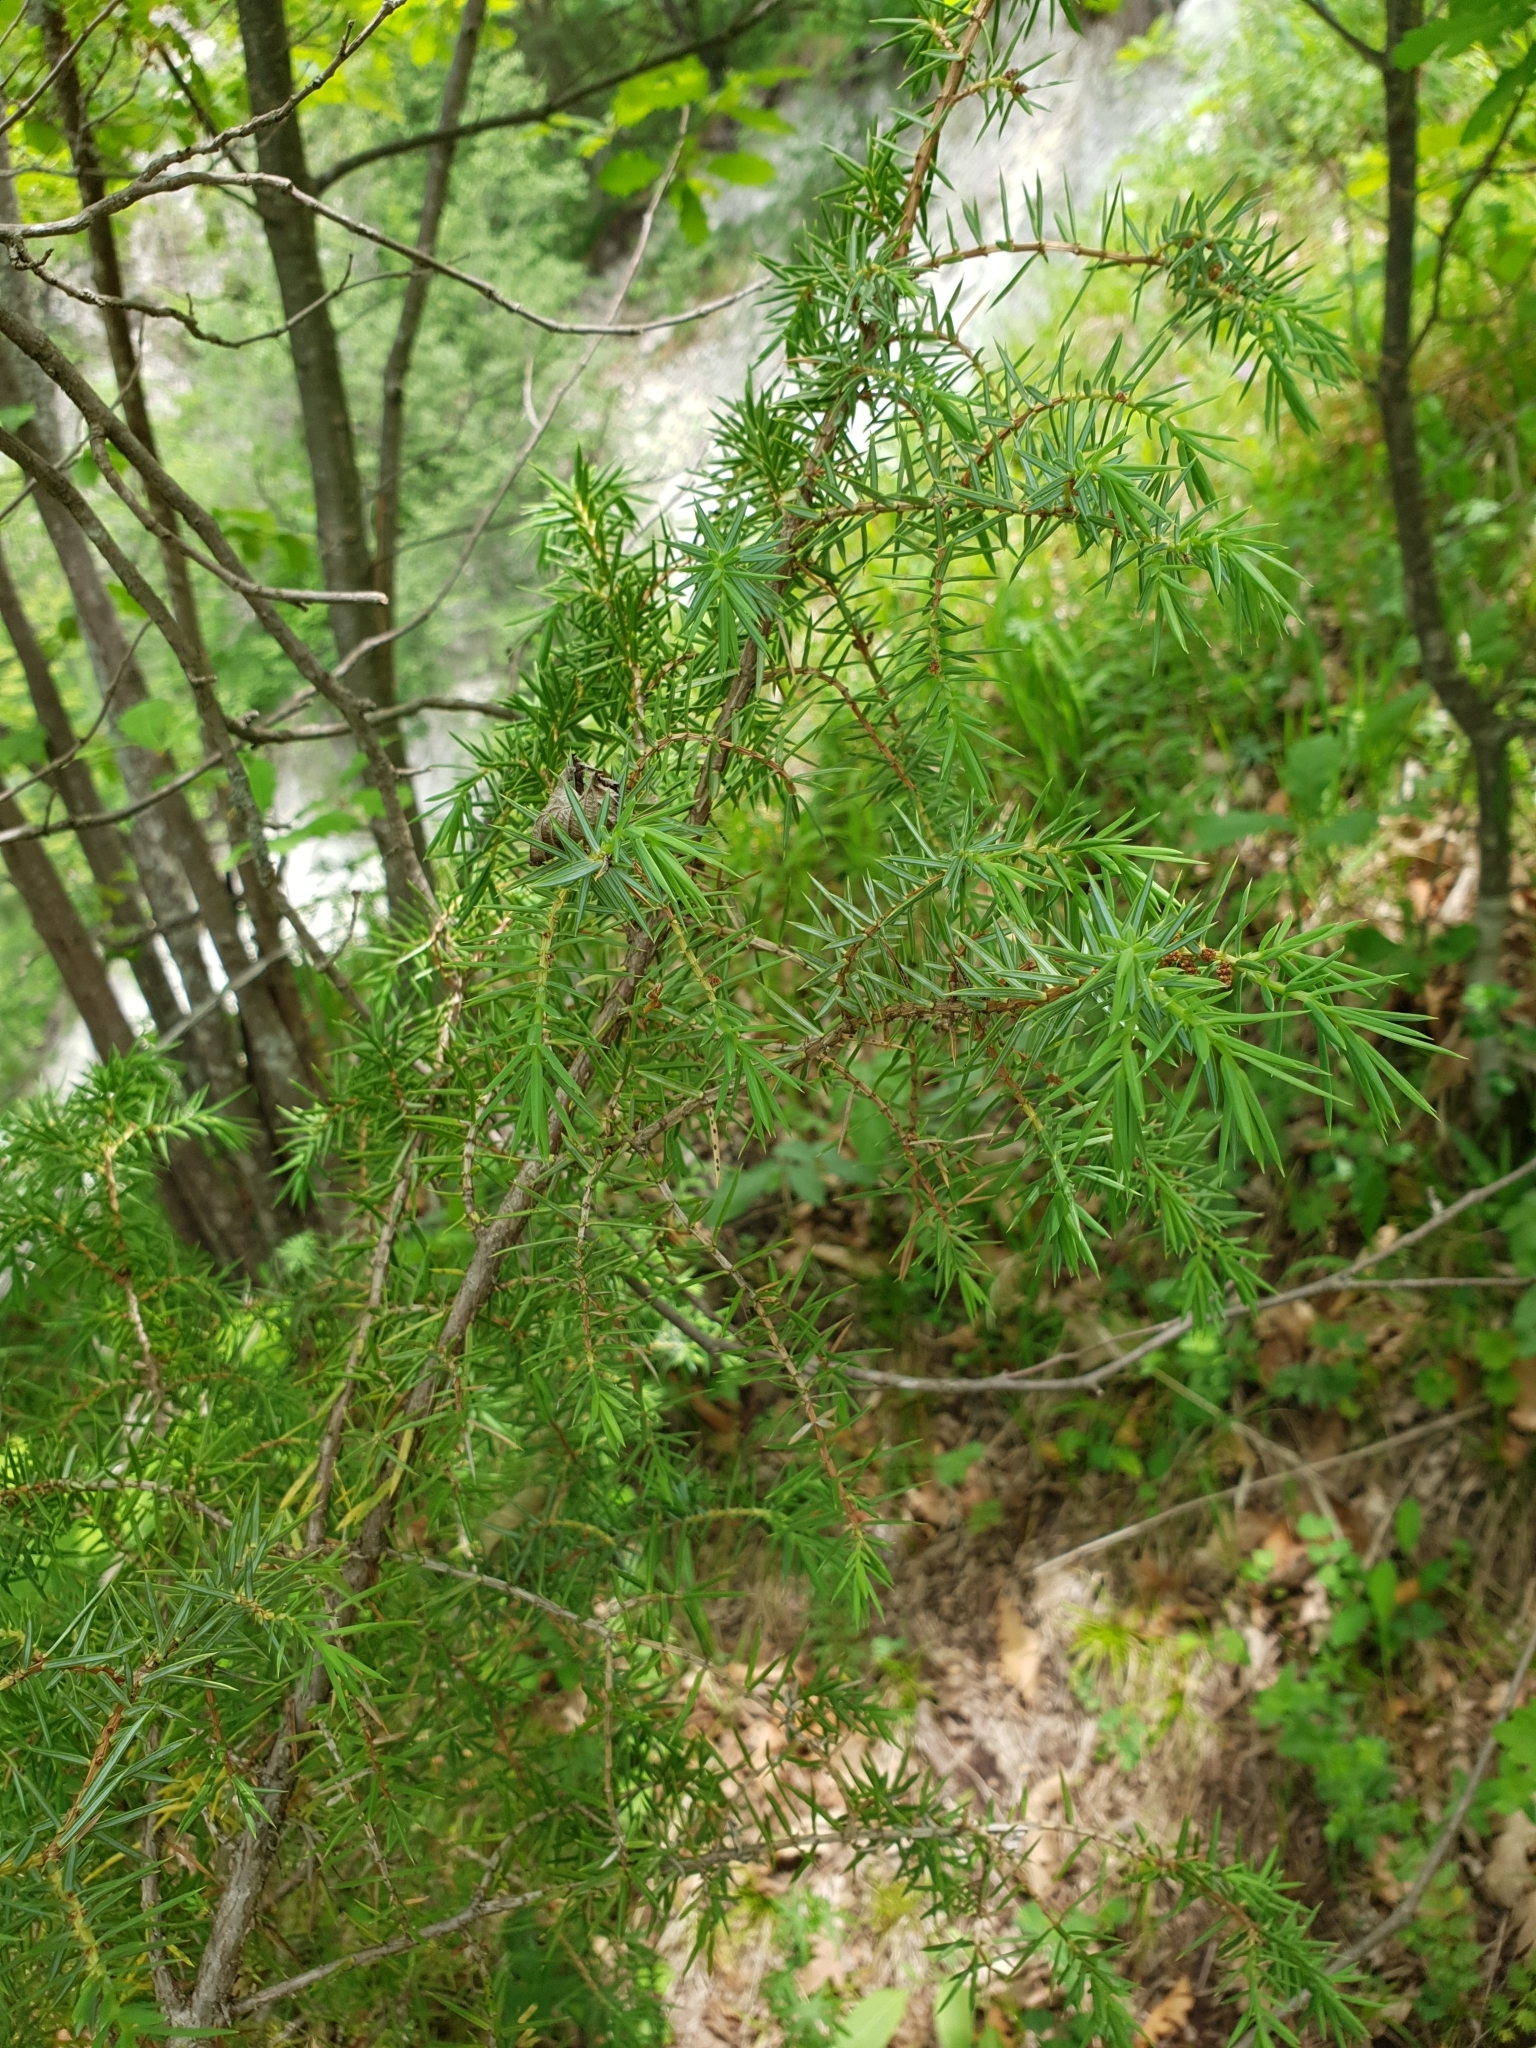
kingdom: Plantae
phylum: Tracheophyta
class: Pinopsida
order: Pinales
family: Cupressaceae
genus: Juniperus
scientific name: Juniperus communis
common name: Common juniper
